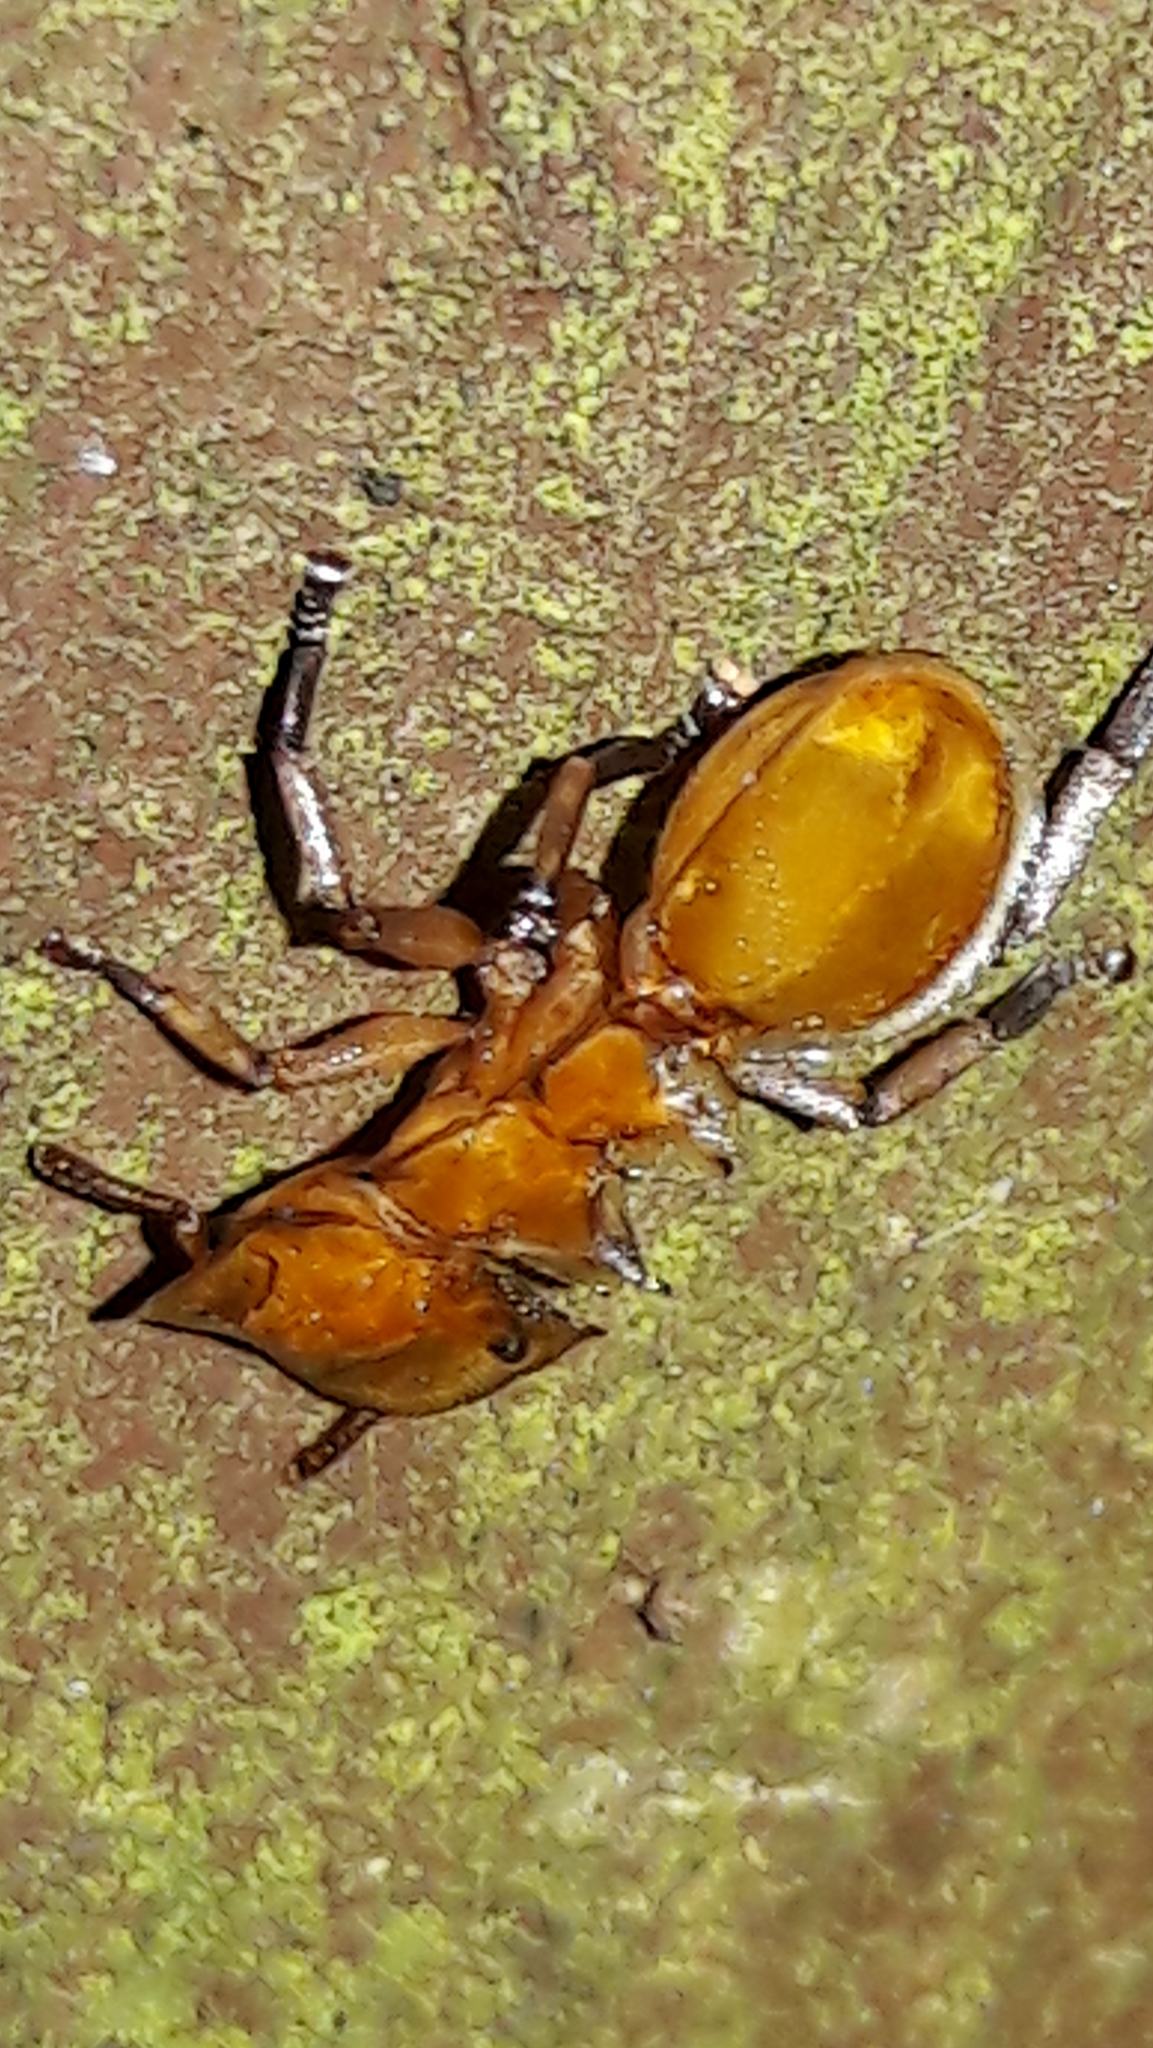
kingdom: Animalia
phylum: Arthropoda
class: Insecta
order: Hymenoptera
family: Formicidae
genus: Cephalotes
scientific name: Cephalotes clypeatus
